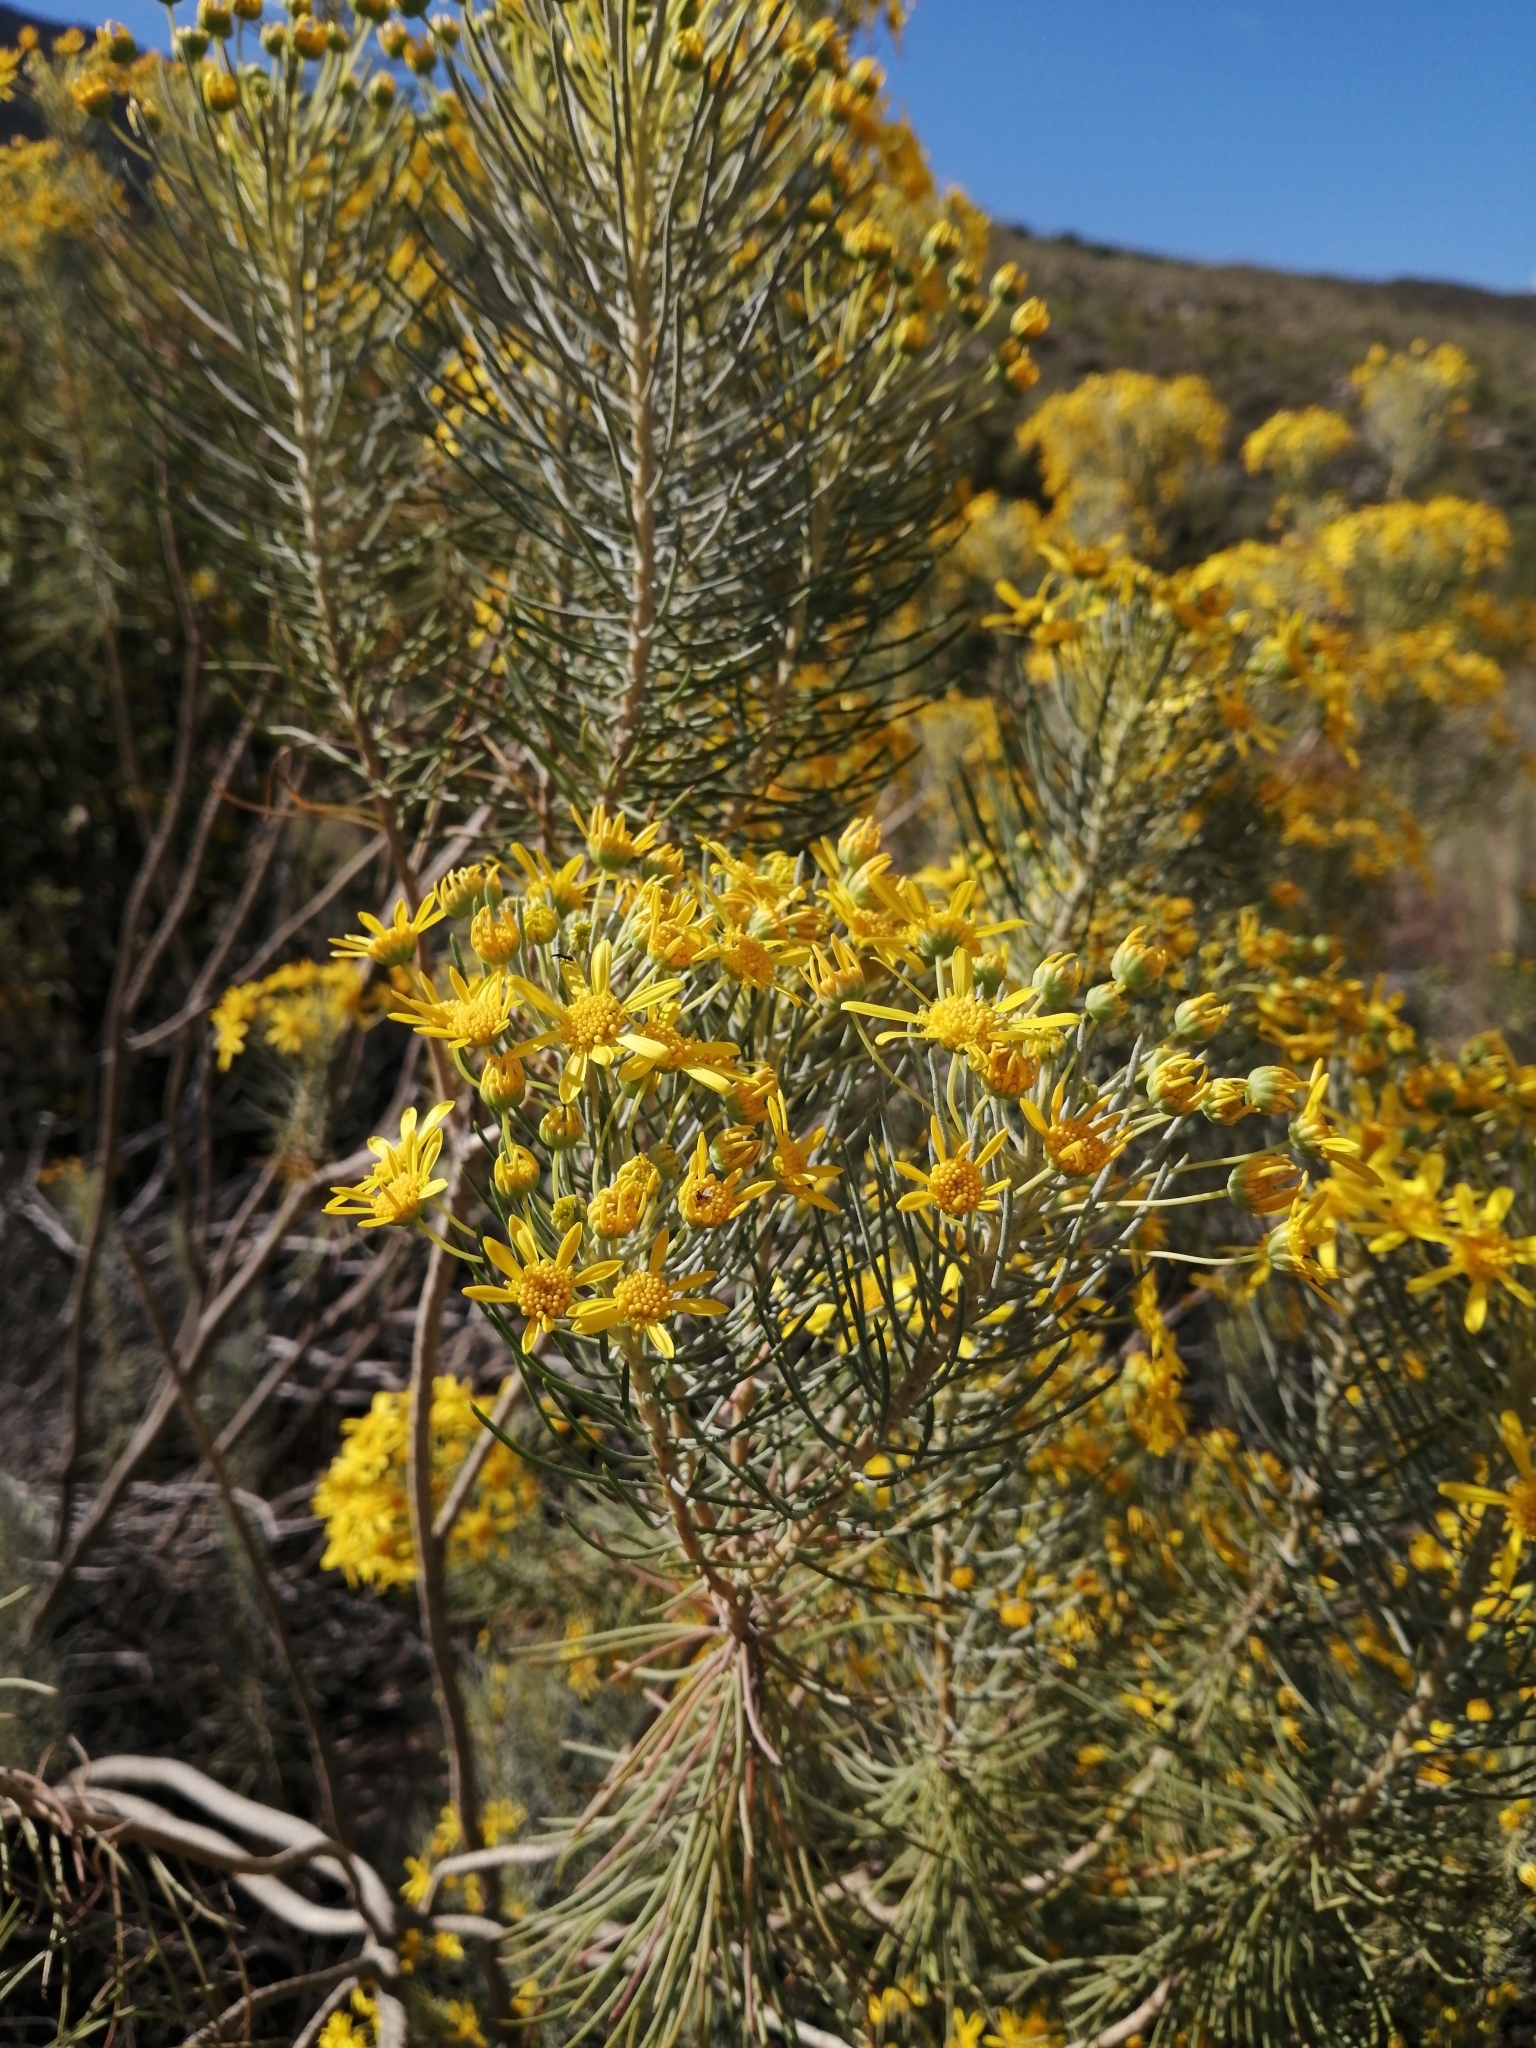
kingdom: Plantae
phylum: Tracheophyta
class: Magnoliopsida
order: Asterales
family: Asteraceae
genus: Euryops
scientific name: Euryops tenuissimus
